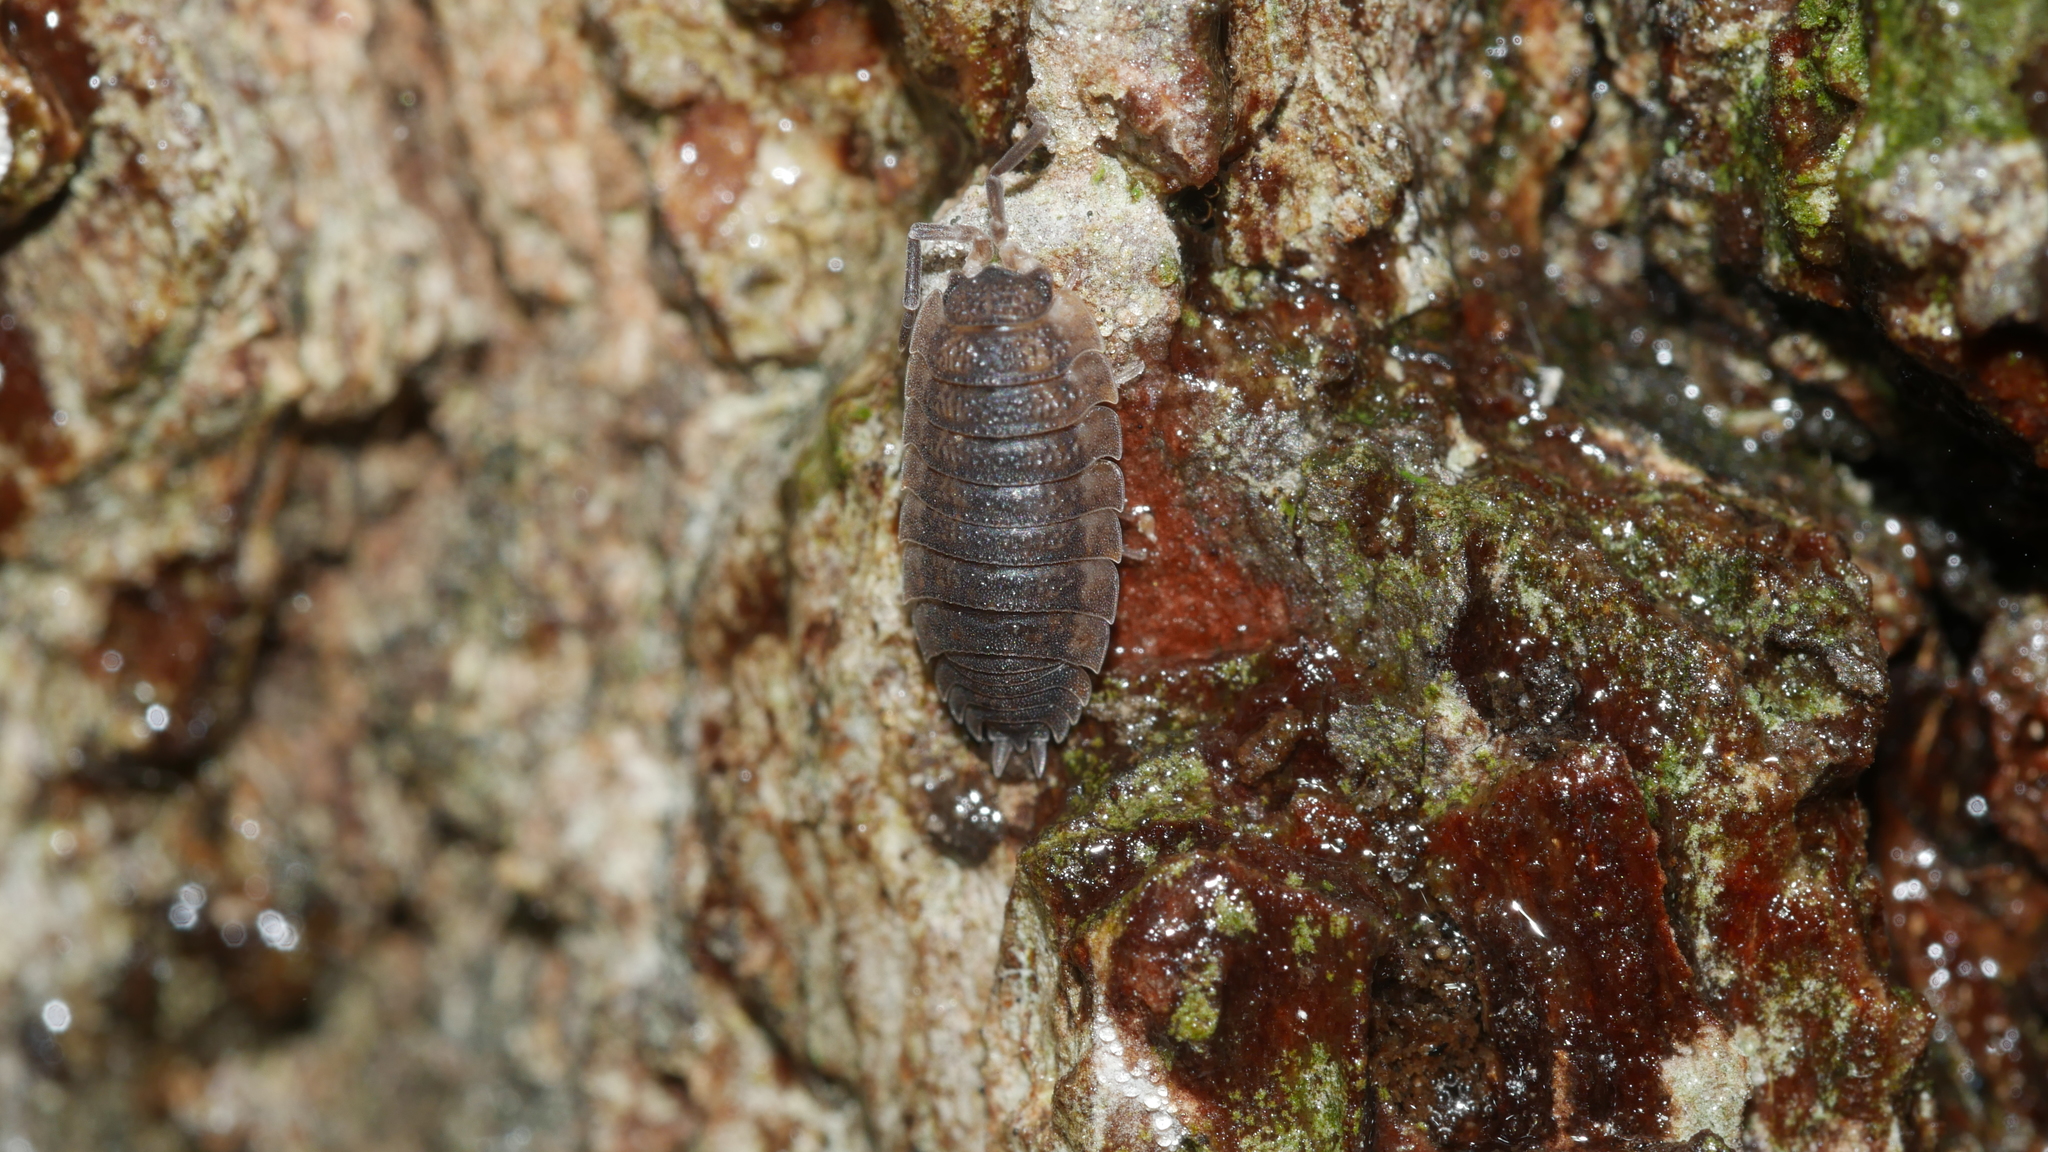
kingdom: Animalia
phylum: Arthropoda
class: Malacostraca
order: Isopoda
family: Porcellionidae
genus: Porcellio
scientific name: Porcellio scaber
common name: Common rough woodlouse
